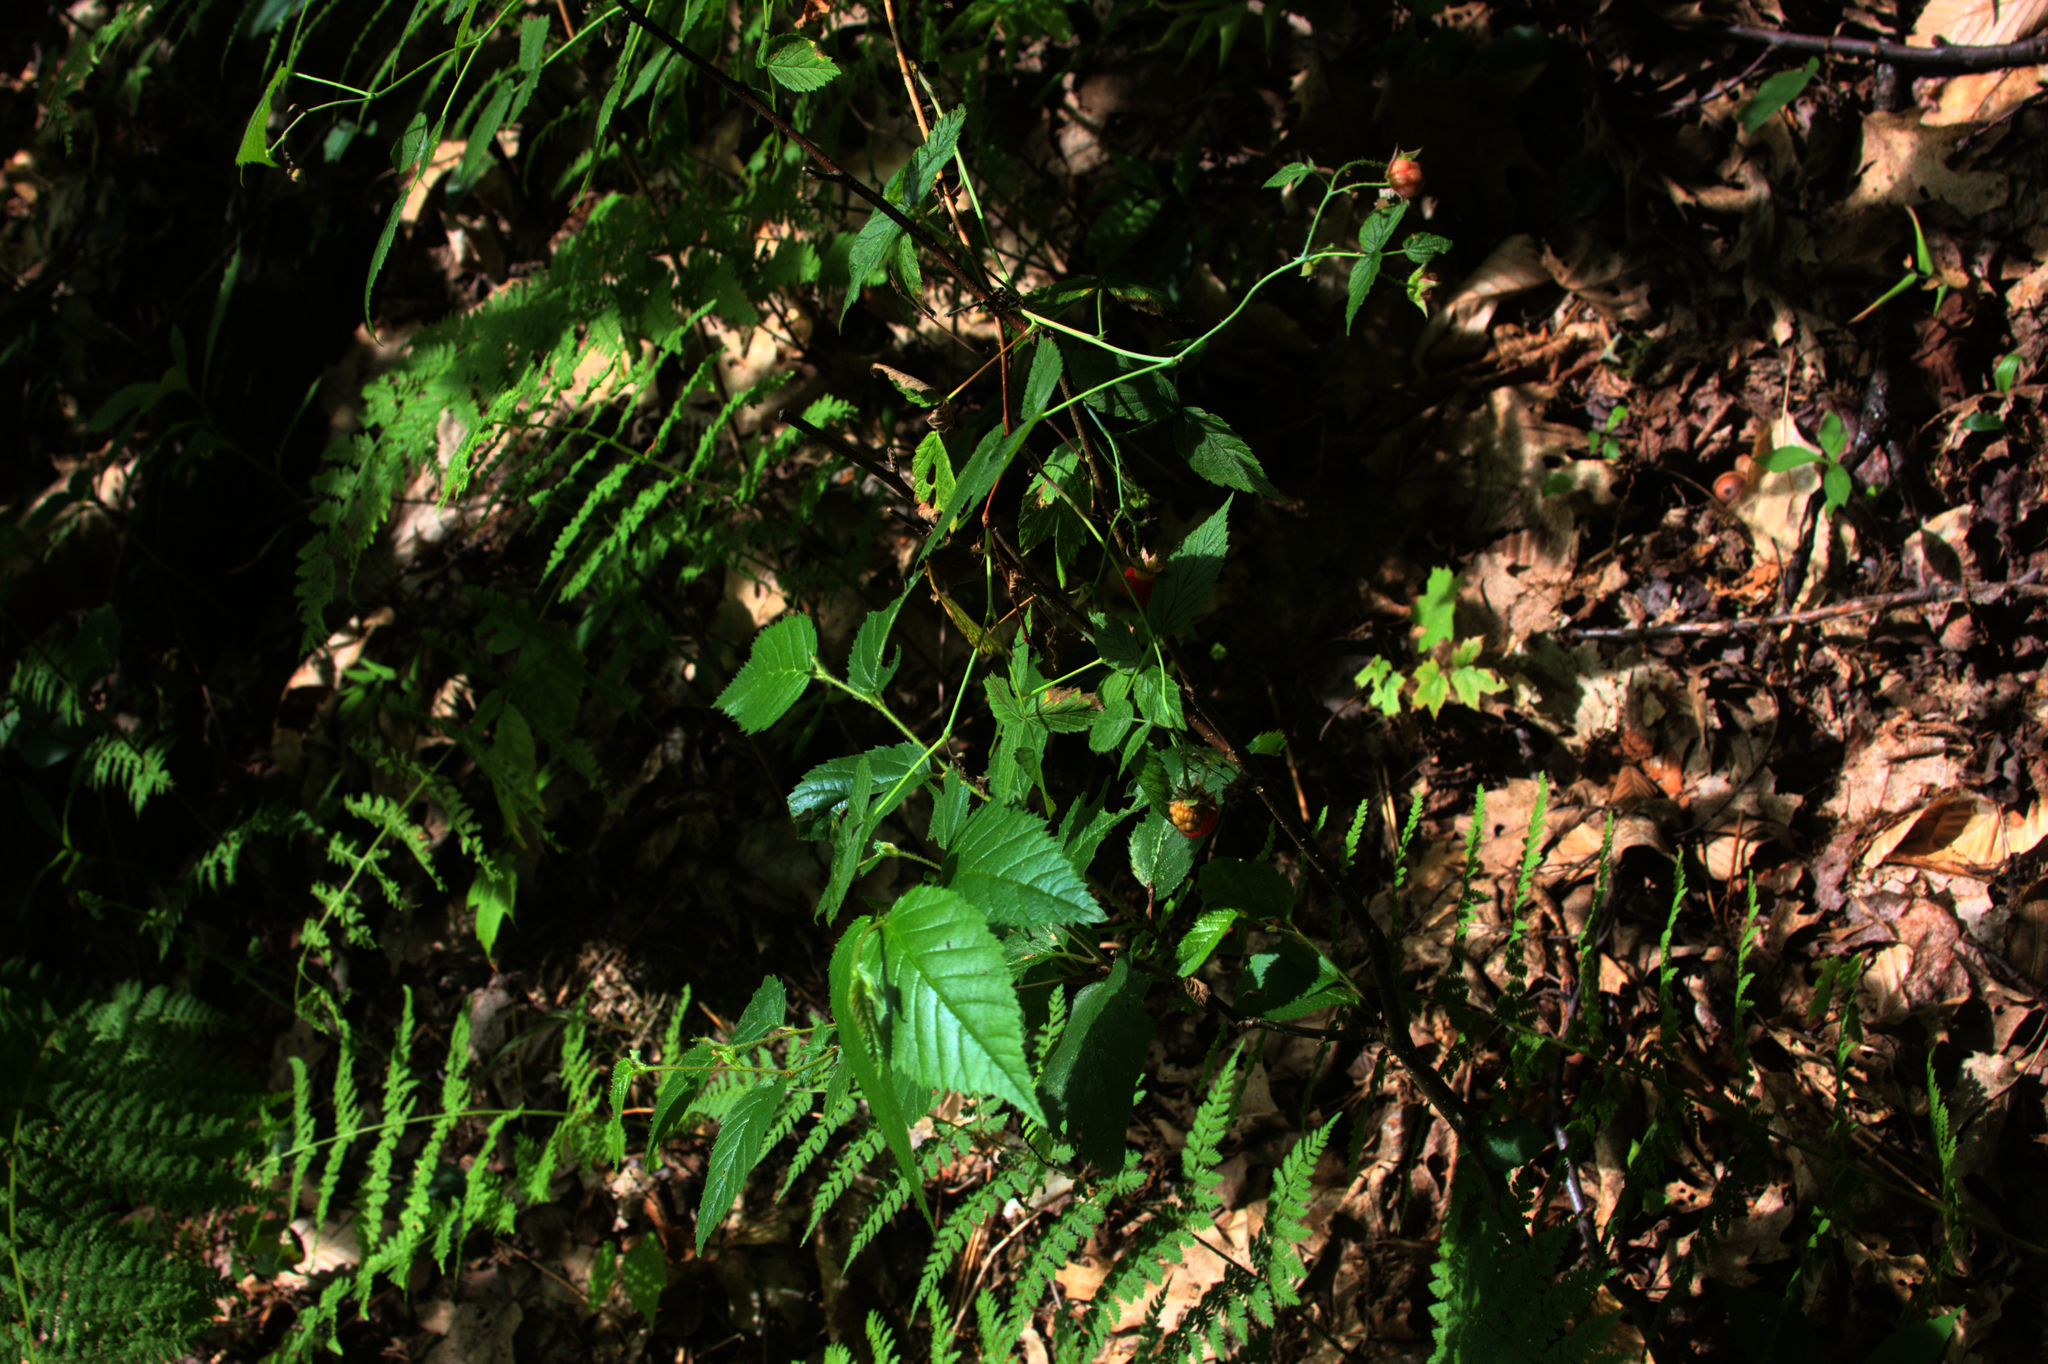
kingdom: Plantae
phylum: Tracheophyta
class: Magnoliopsida
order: Rosales
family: Rosaceae
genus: Rubus
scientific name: Rubus idaeus
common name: Raspberry
